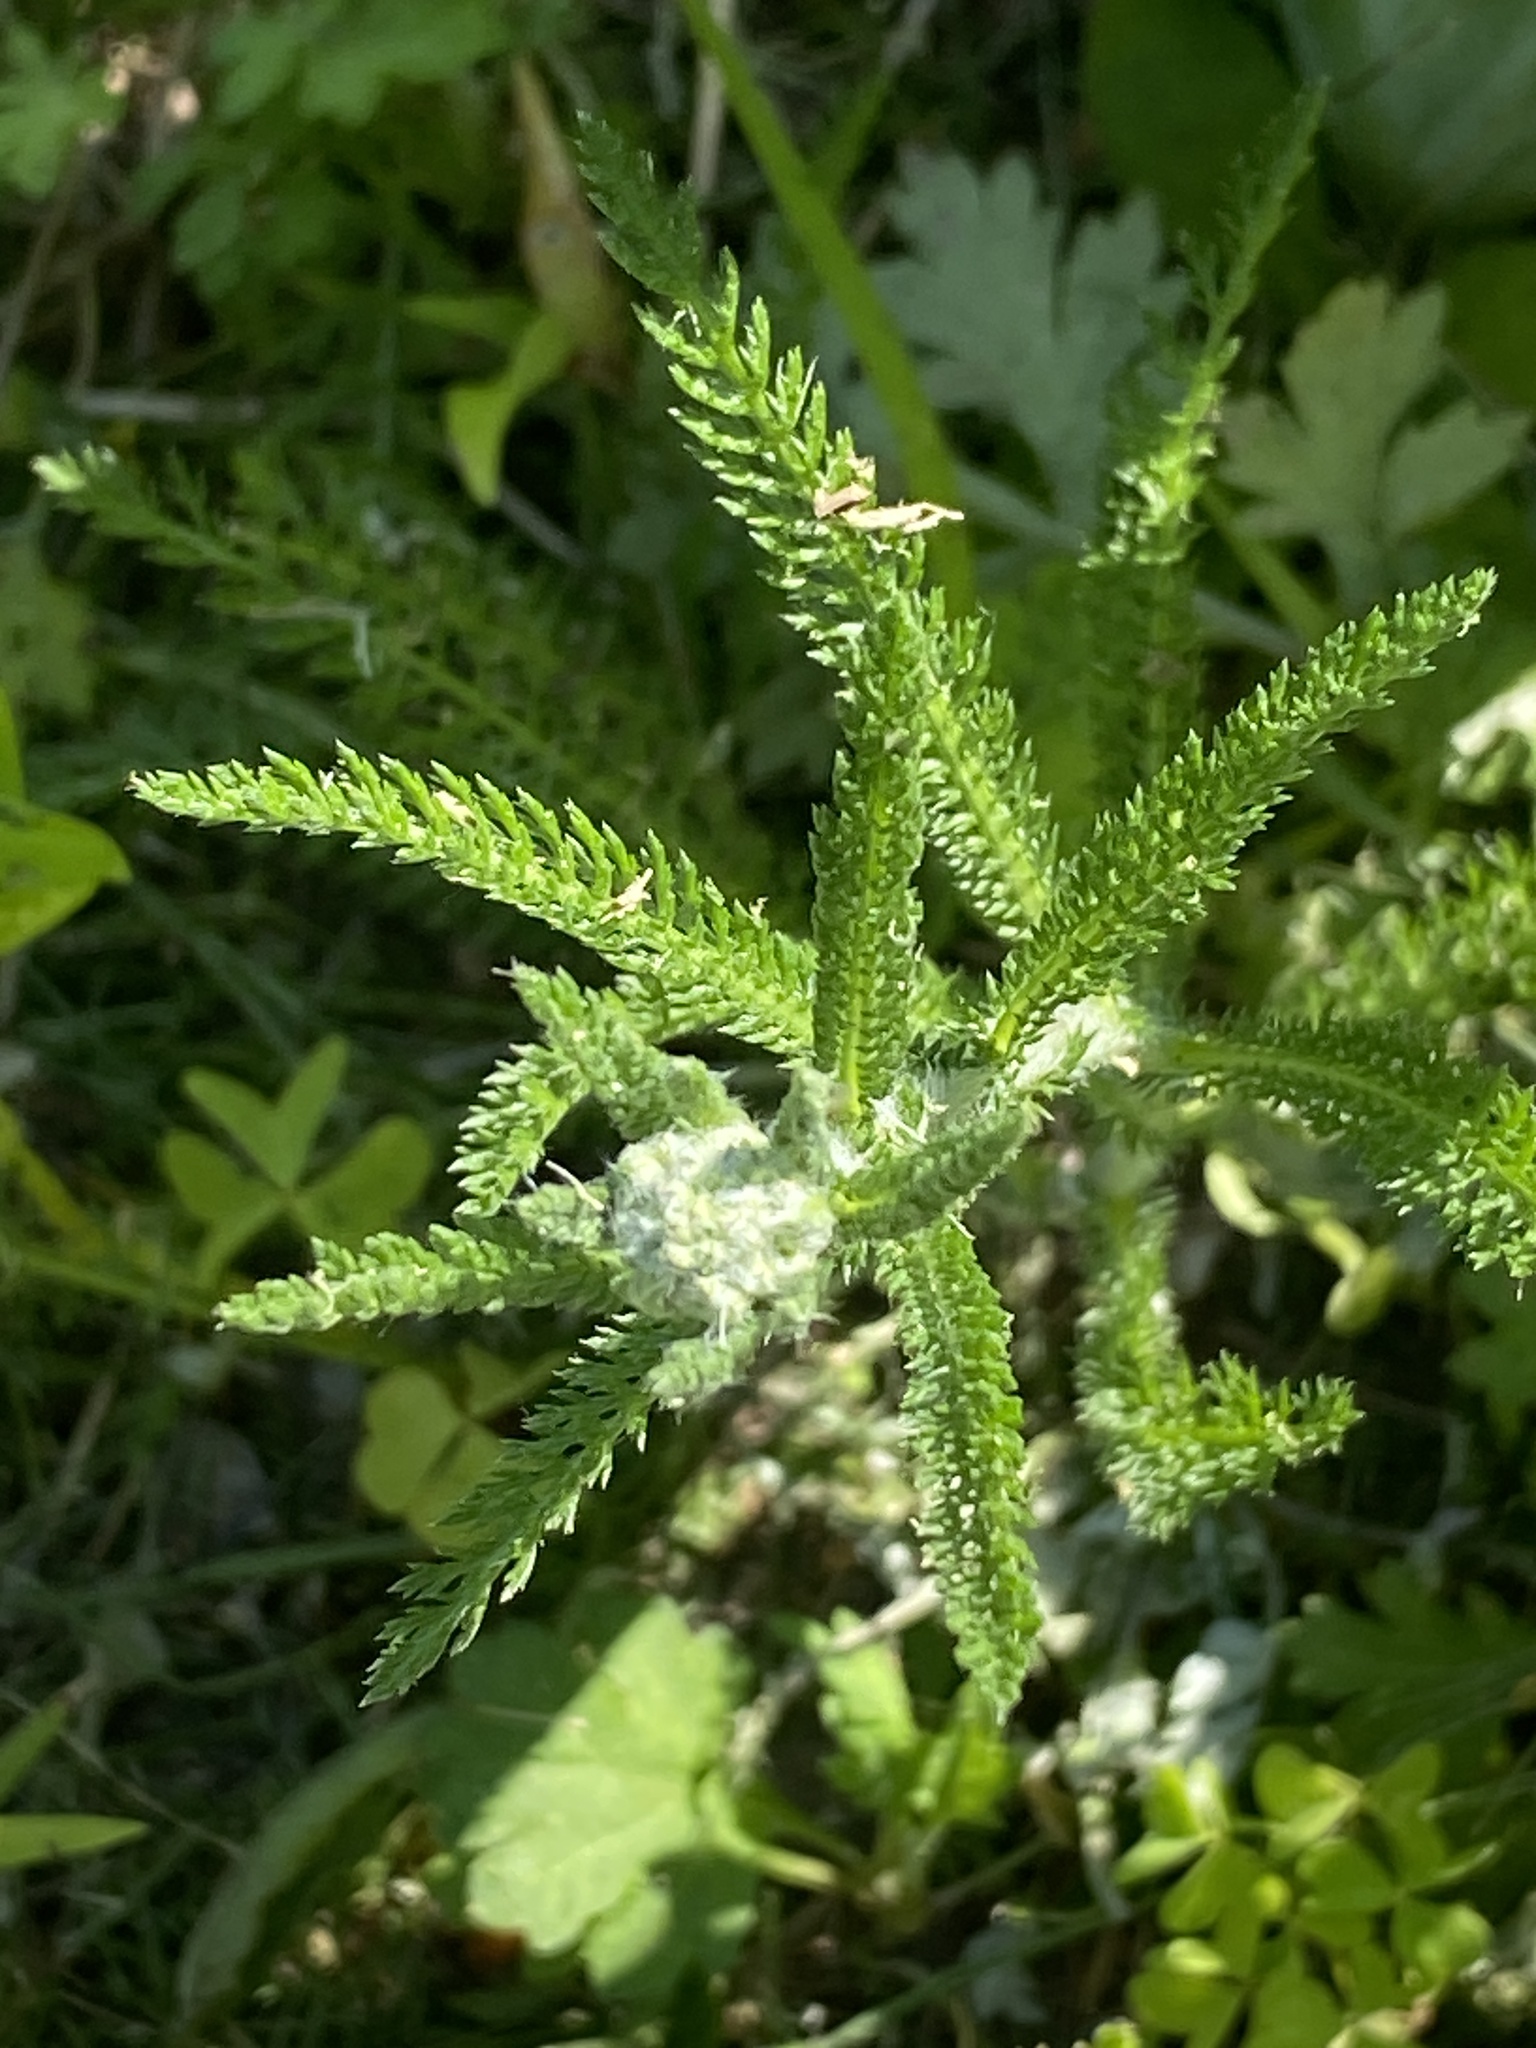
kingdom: Plantae
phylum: Tracheophyta
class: Magnoliopsida
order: Asterales
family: Asteraceae
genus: Achillea
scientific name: Achillea millefolium
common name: Yarrow
